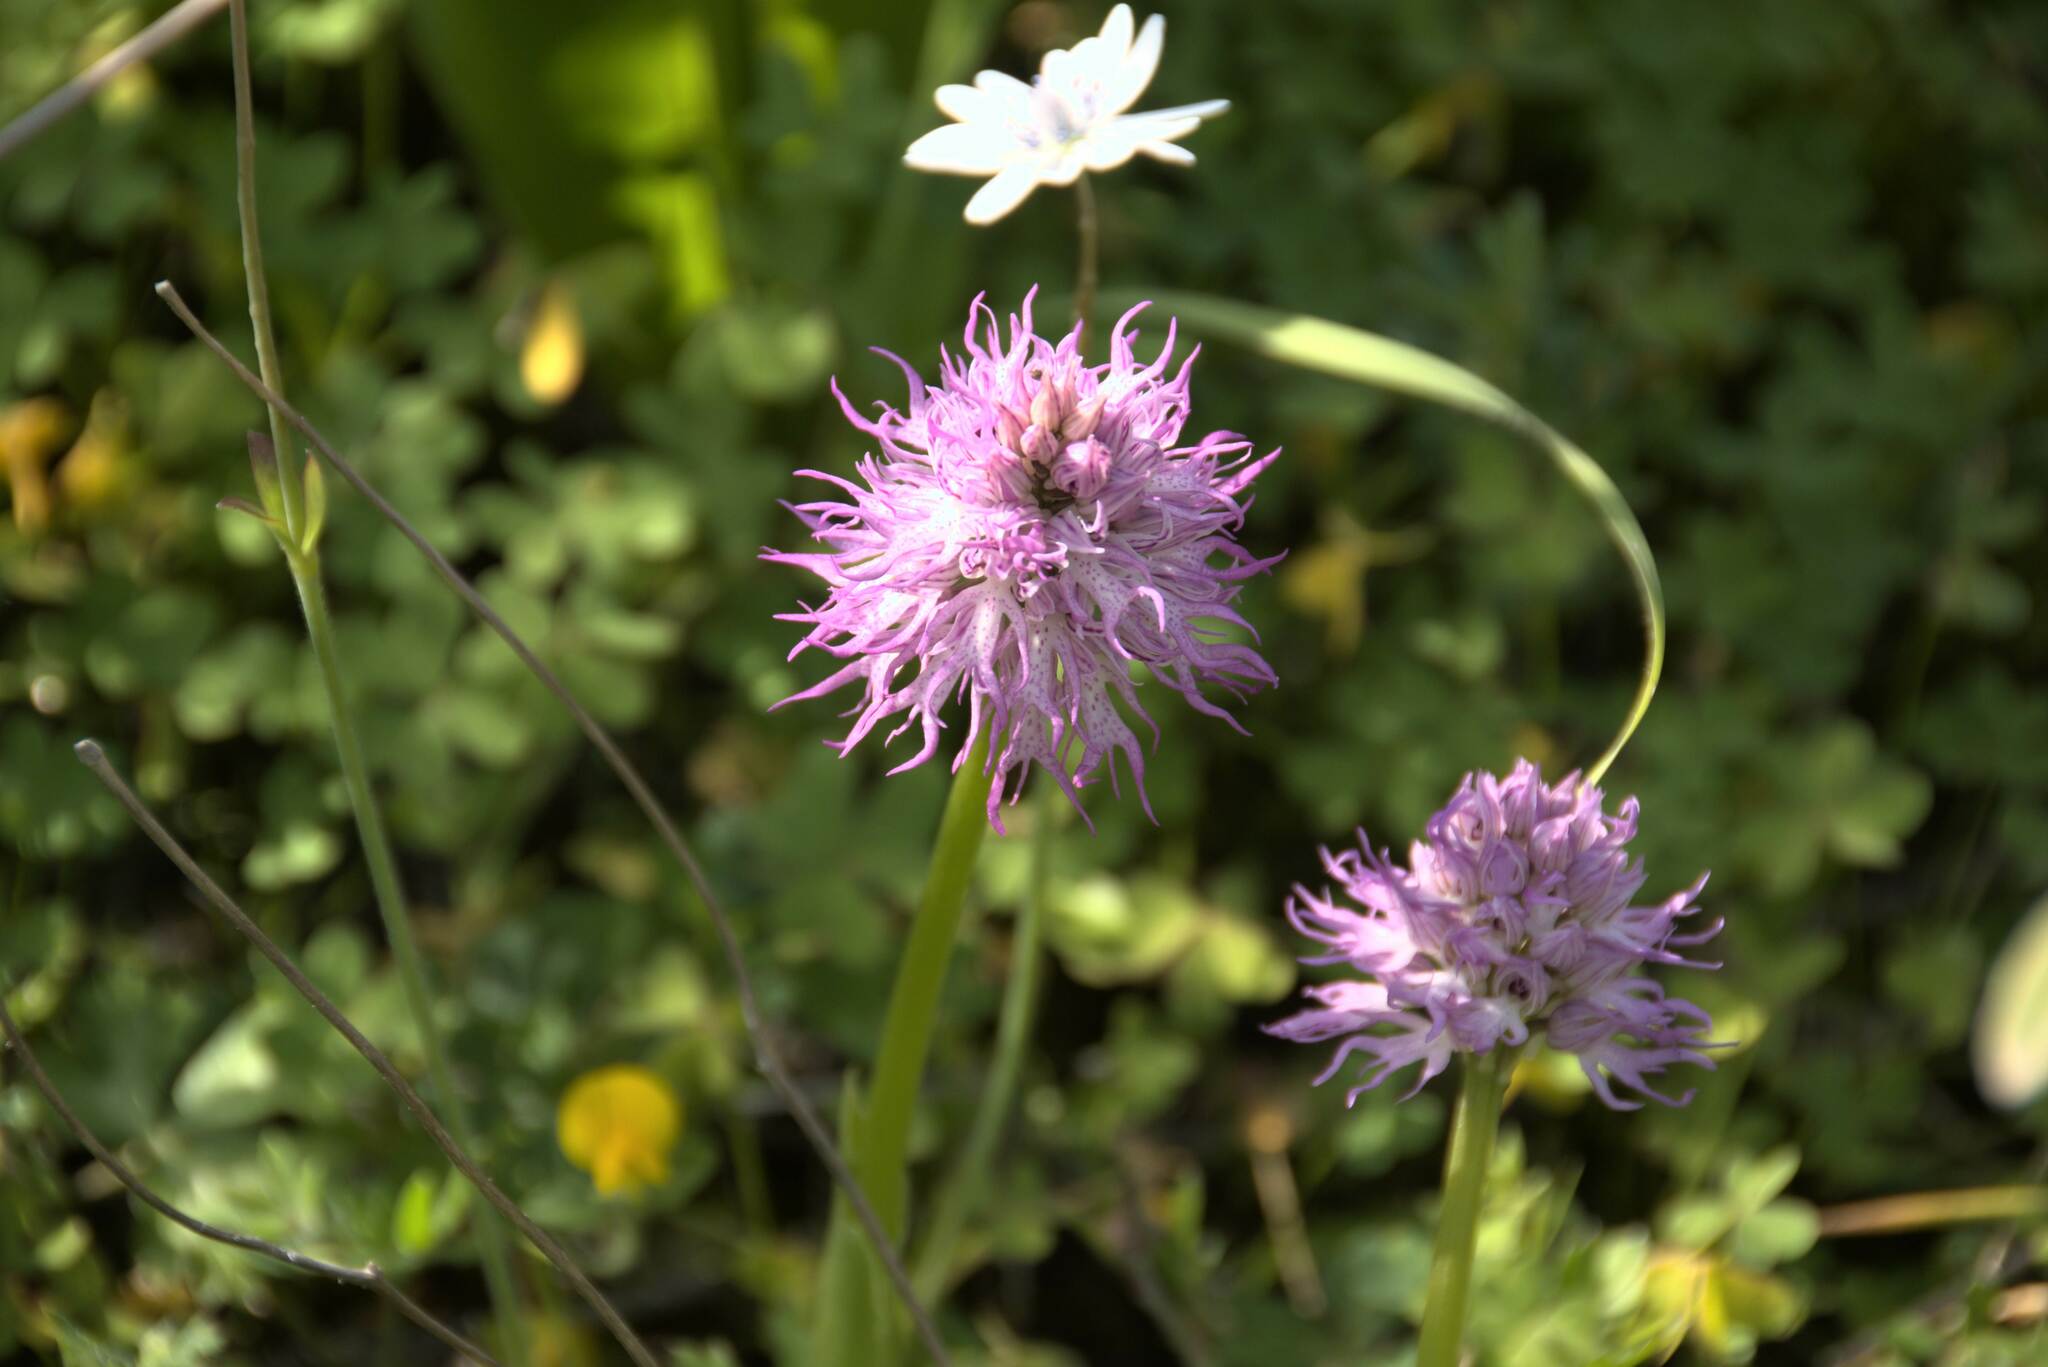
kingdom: Plantae
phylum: Tracheophyta
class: Liliopsida
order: Asparagales
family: Orchidaceae
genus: Orchis
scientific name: Orchis italica
